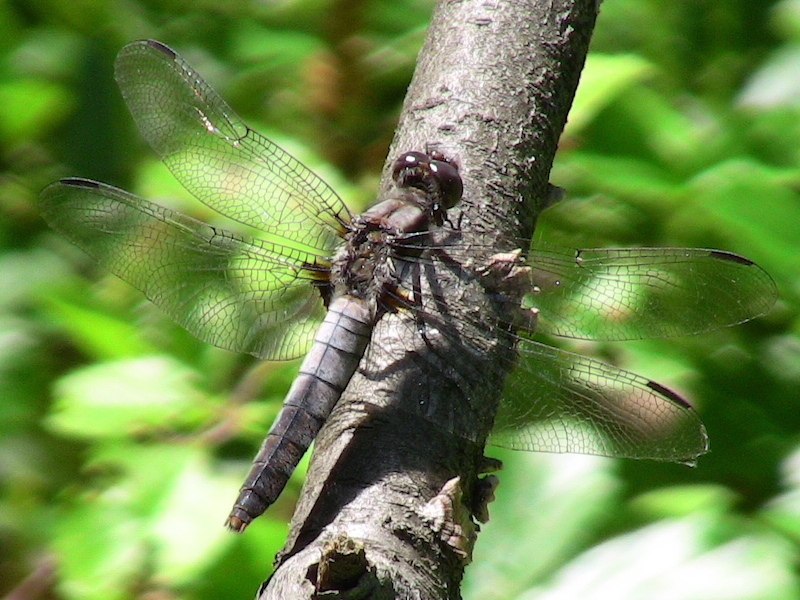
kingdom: Animalia
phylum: Arthropoda
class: Insecta
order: Odonata
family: Libellulidae
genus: Ladona
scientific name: Ladona julia
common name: Chalk-fronted corporal
